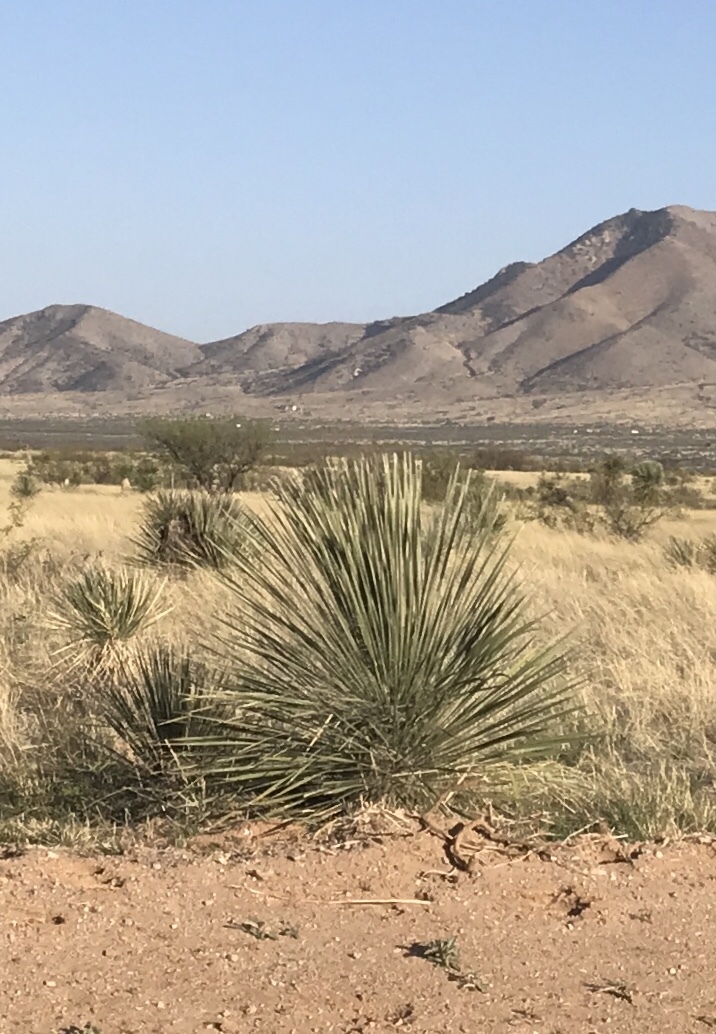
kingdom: Plantae
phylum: Tracheophyta
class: Liliopsida
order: Asparagales
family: Asparagaceae
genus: Yucca
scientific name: Yucca elata
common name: Palmella
